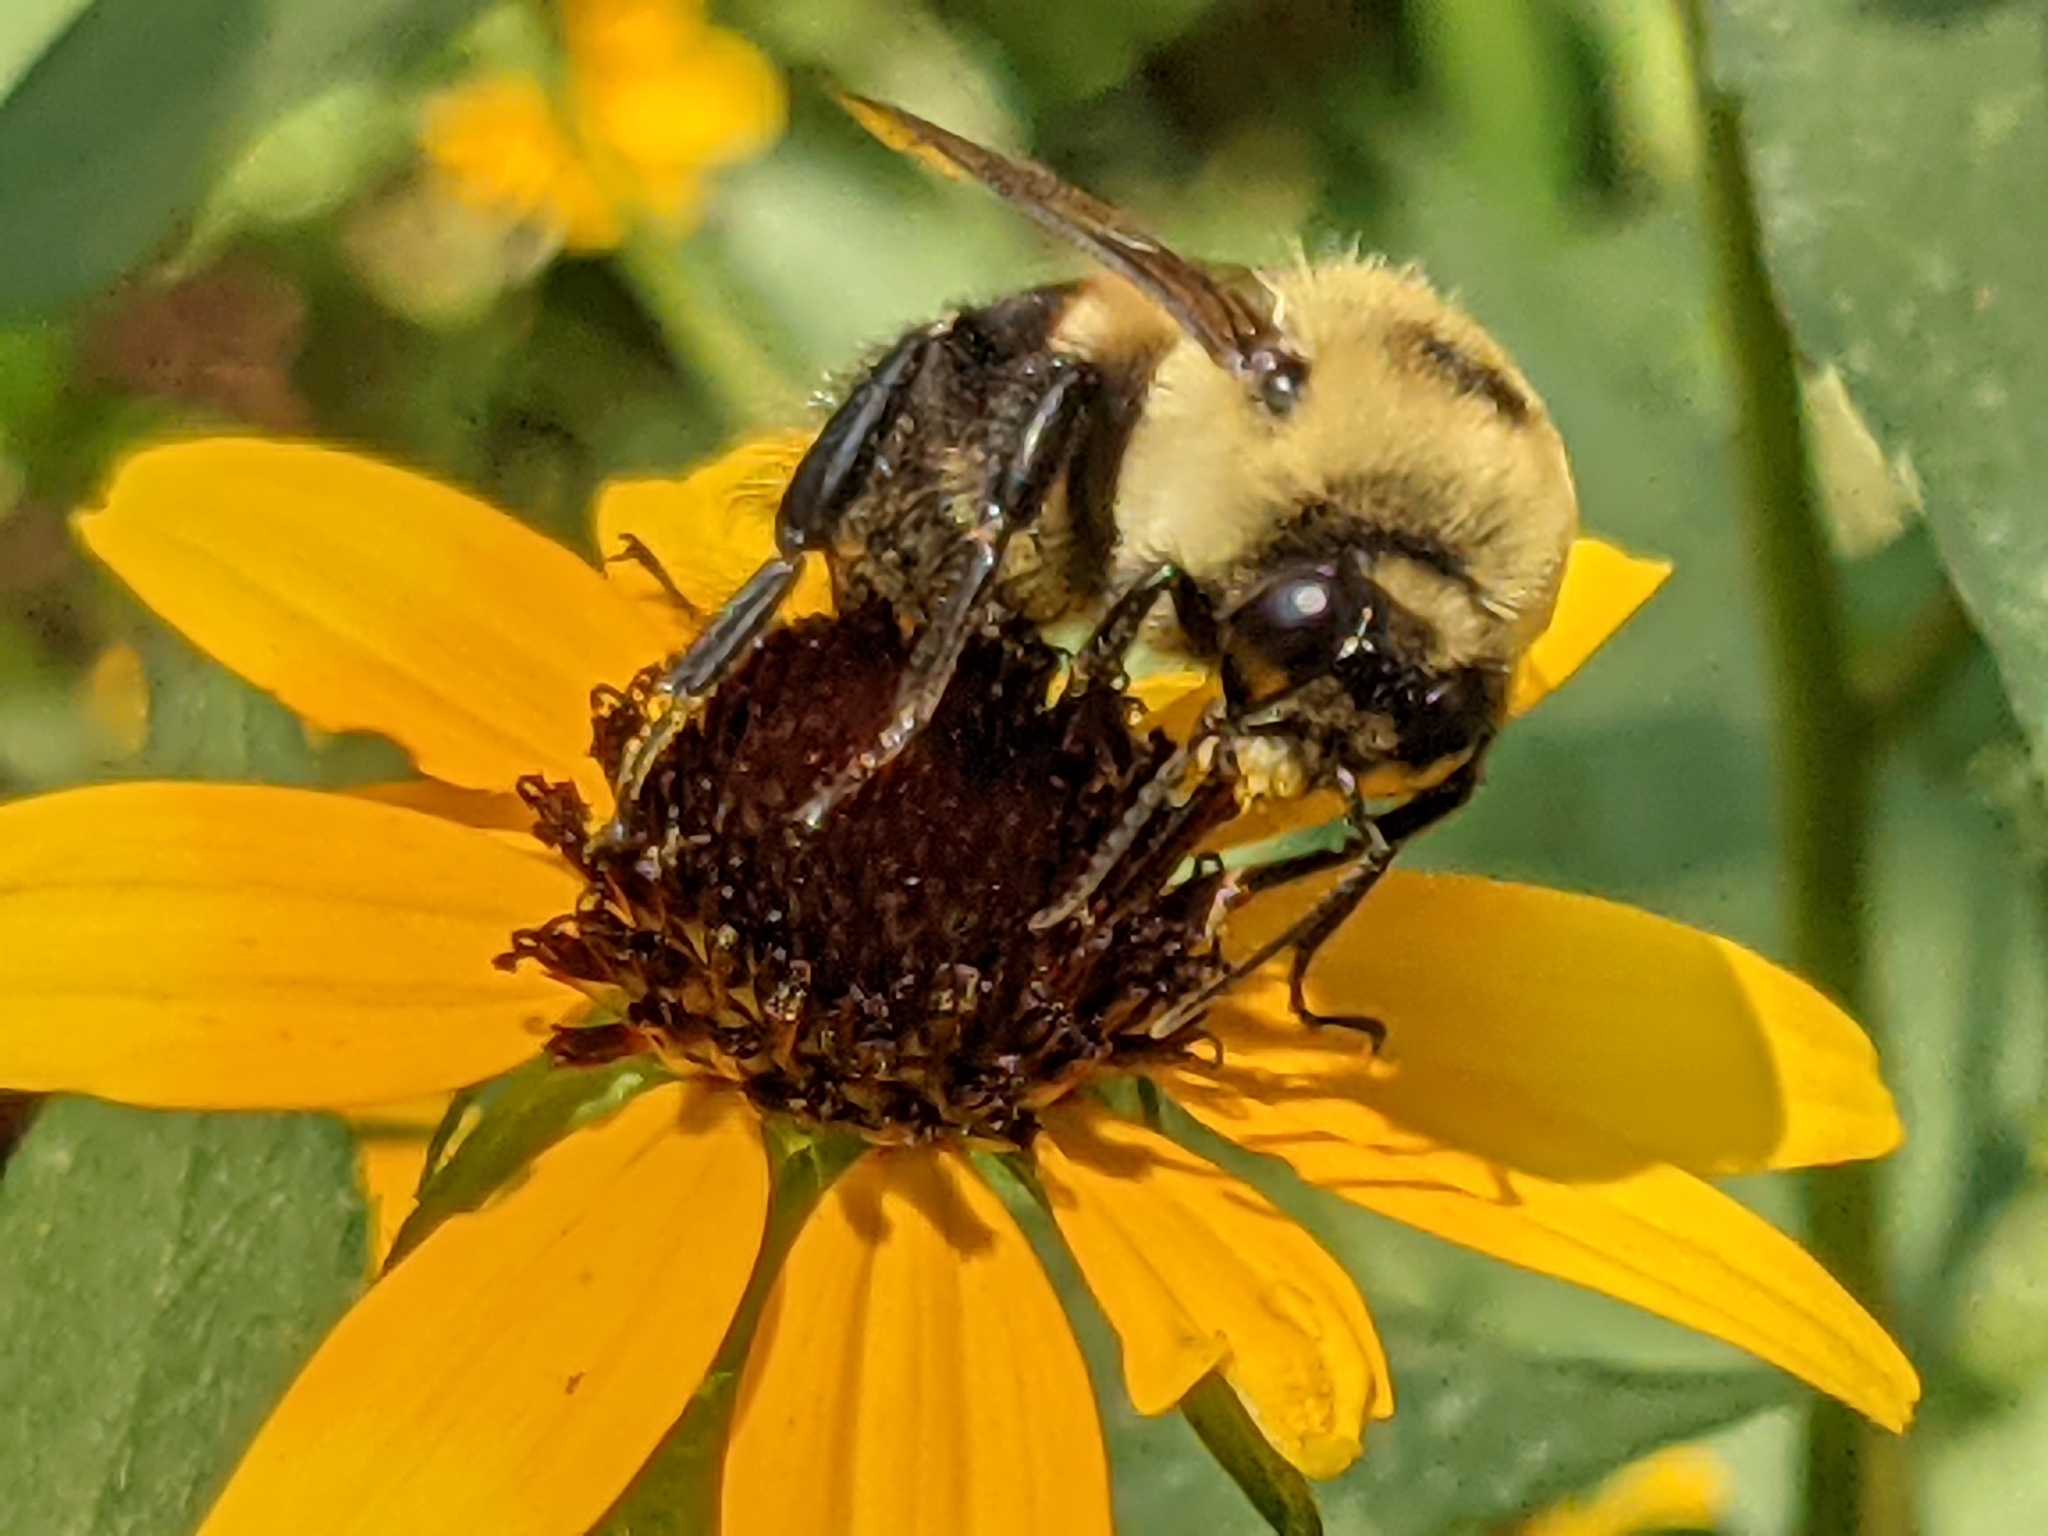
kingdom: Animalia
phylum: Arthropoda
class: Insecta
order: Hymenoptera
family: Apidae
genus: Bombus
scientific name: Bombus griseocollis
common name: Brown-belted bumble bee
